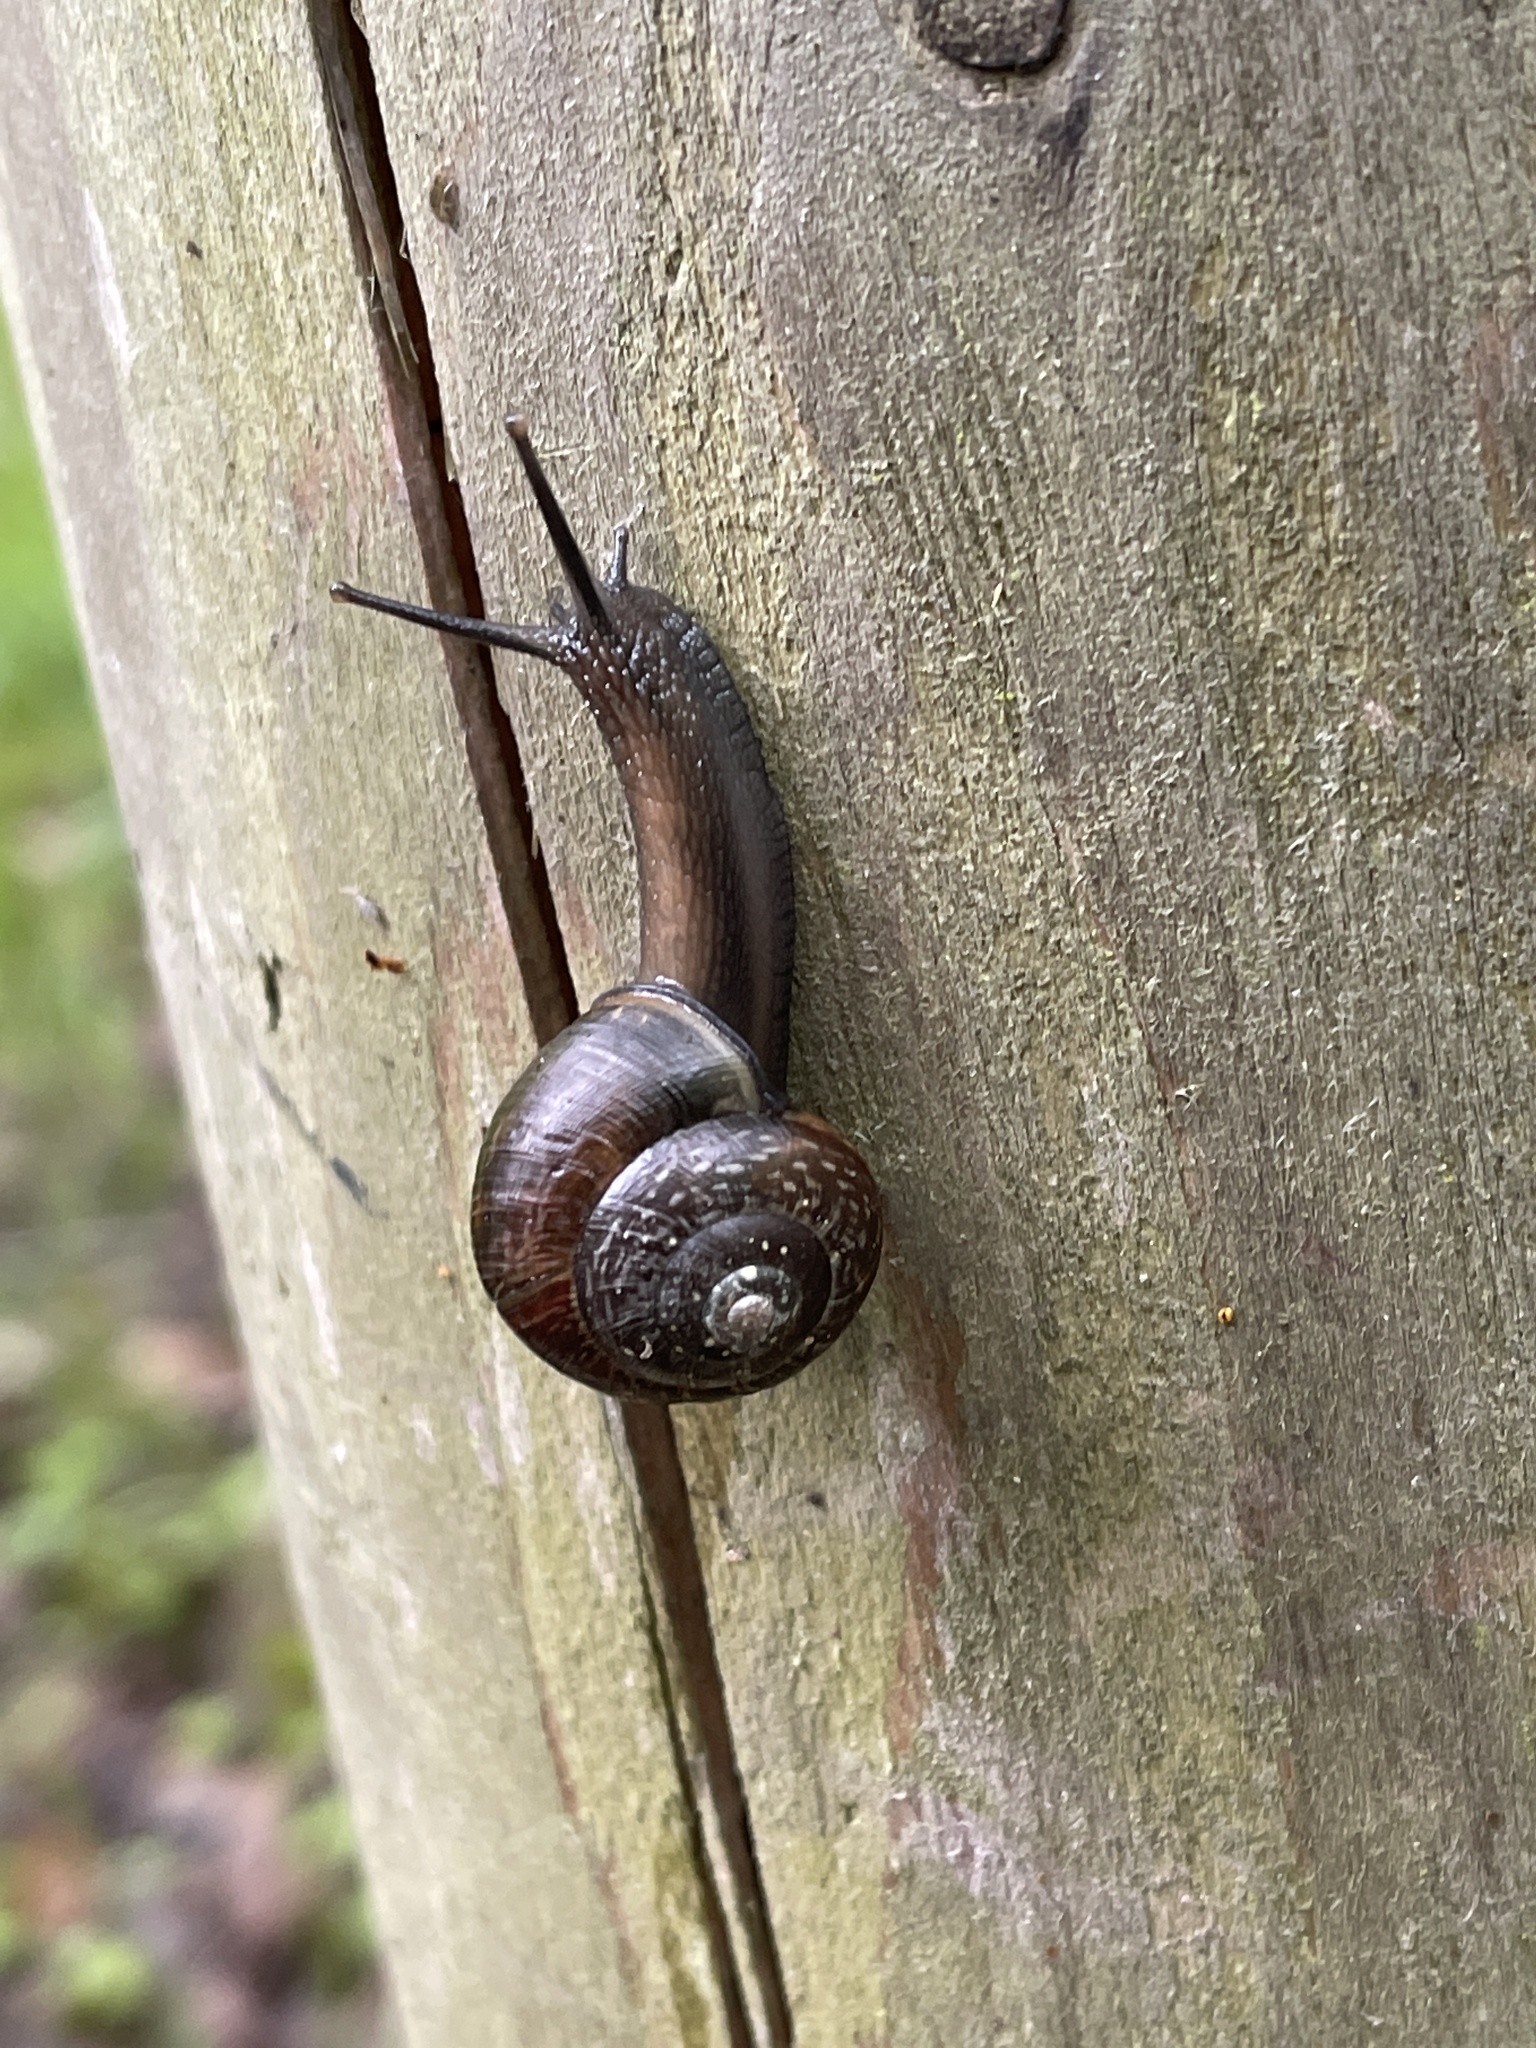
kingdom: Animalia
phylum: Mollusca
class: Gastropoda
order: Stylommatophora
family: Helicidae
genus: Arianta
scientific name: Arianta arbustorum
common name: Copse snail
